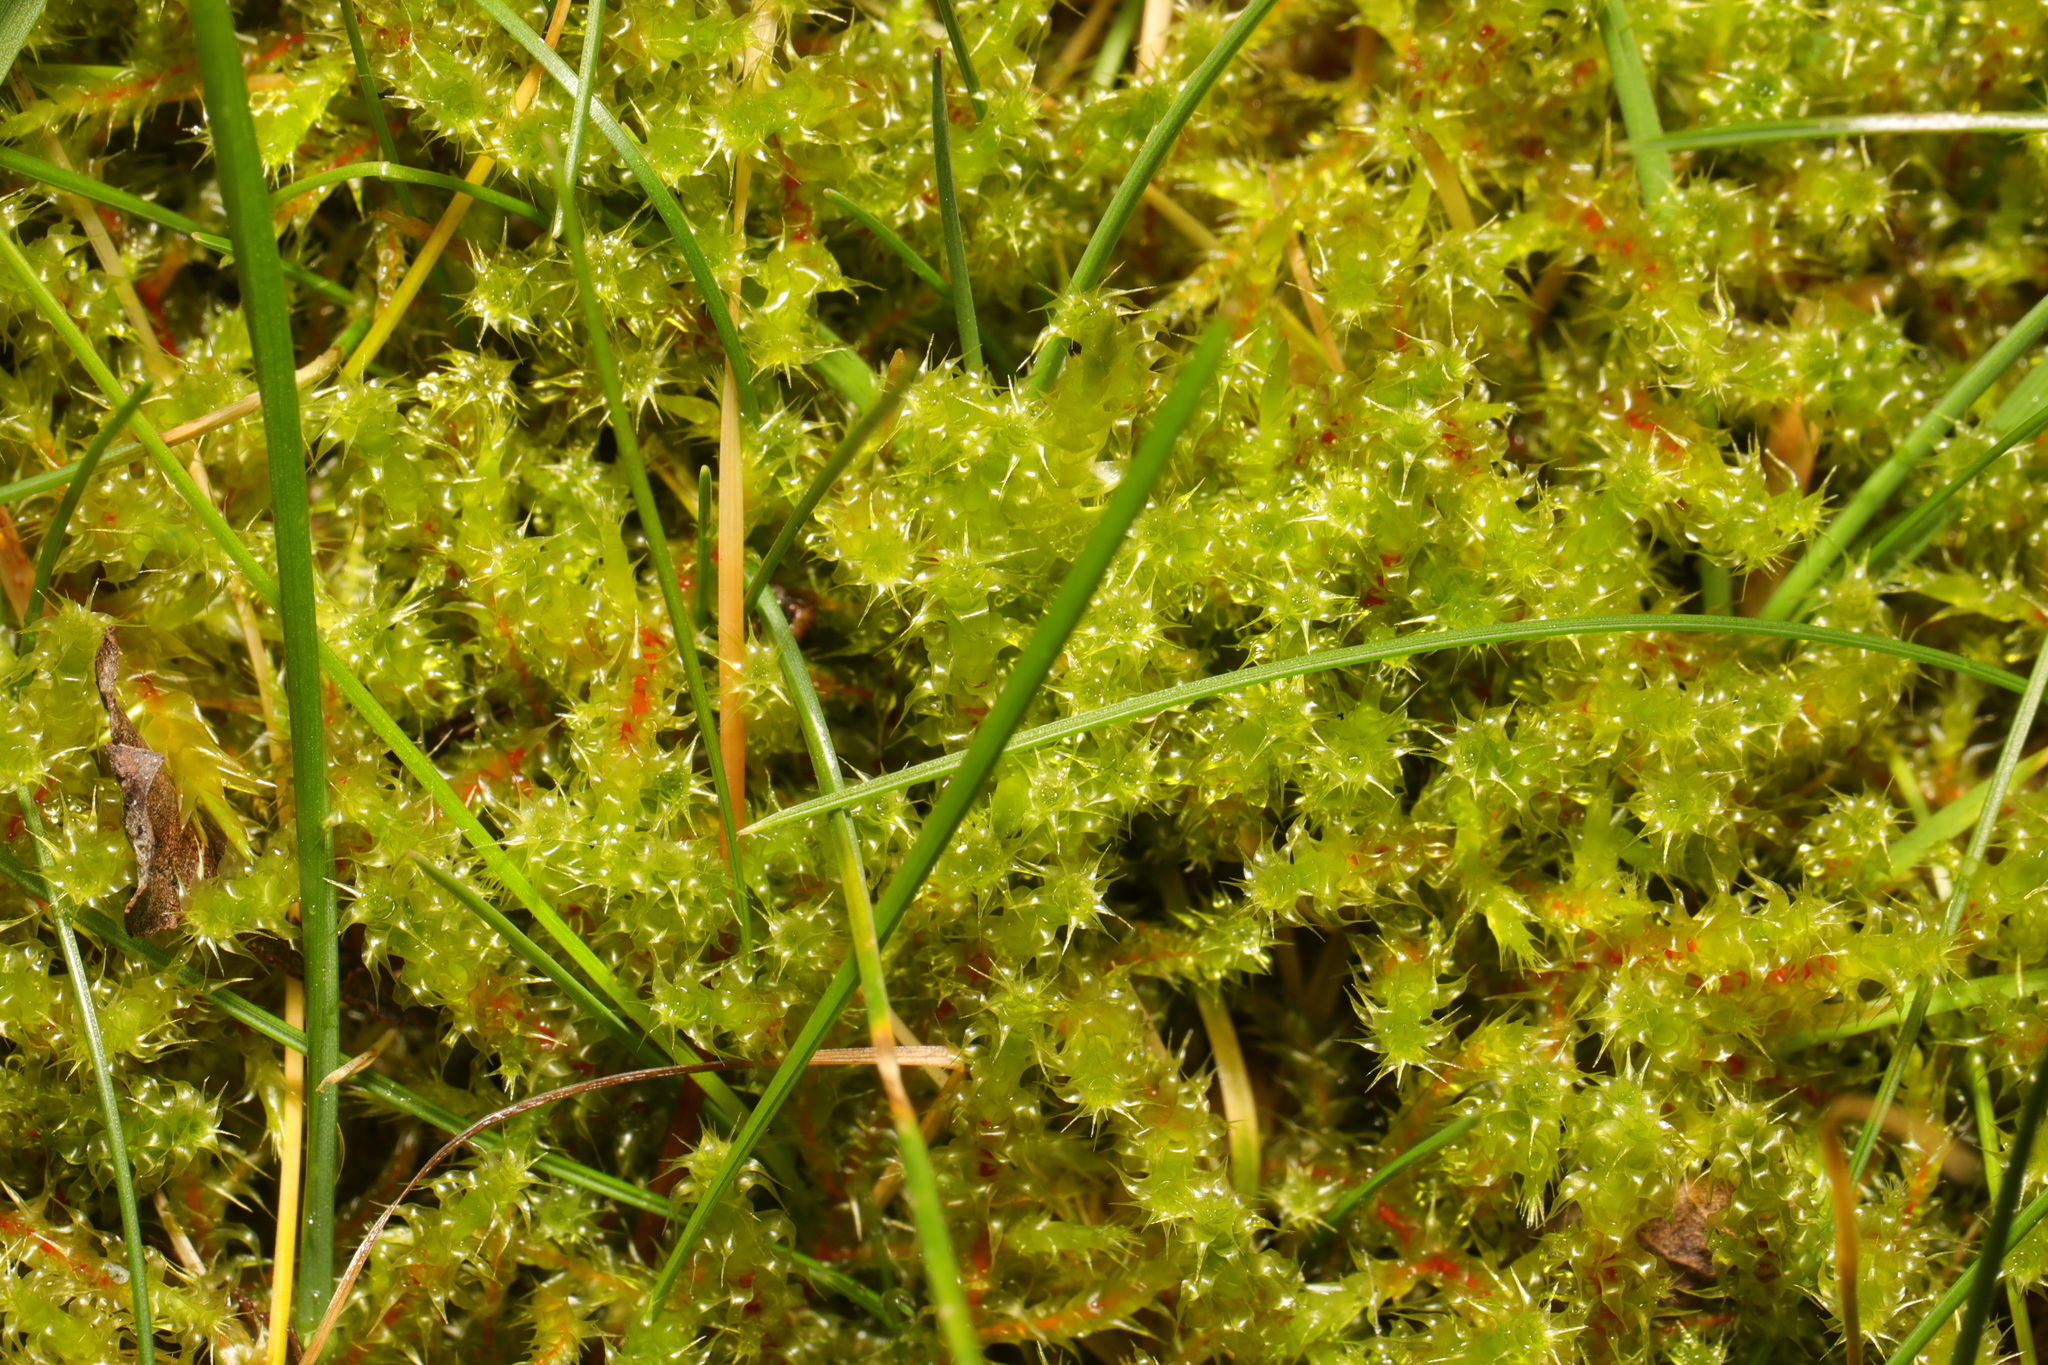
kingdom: Plantae
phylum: Bryophyta
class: Bryopsida
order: Hypnales
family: Hylocomiaceae
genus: Rhytidiadelphus
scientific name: Rhytidiadelphus squarrosus
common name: Springy turf-moss
